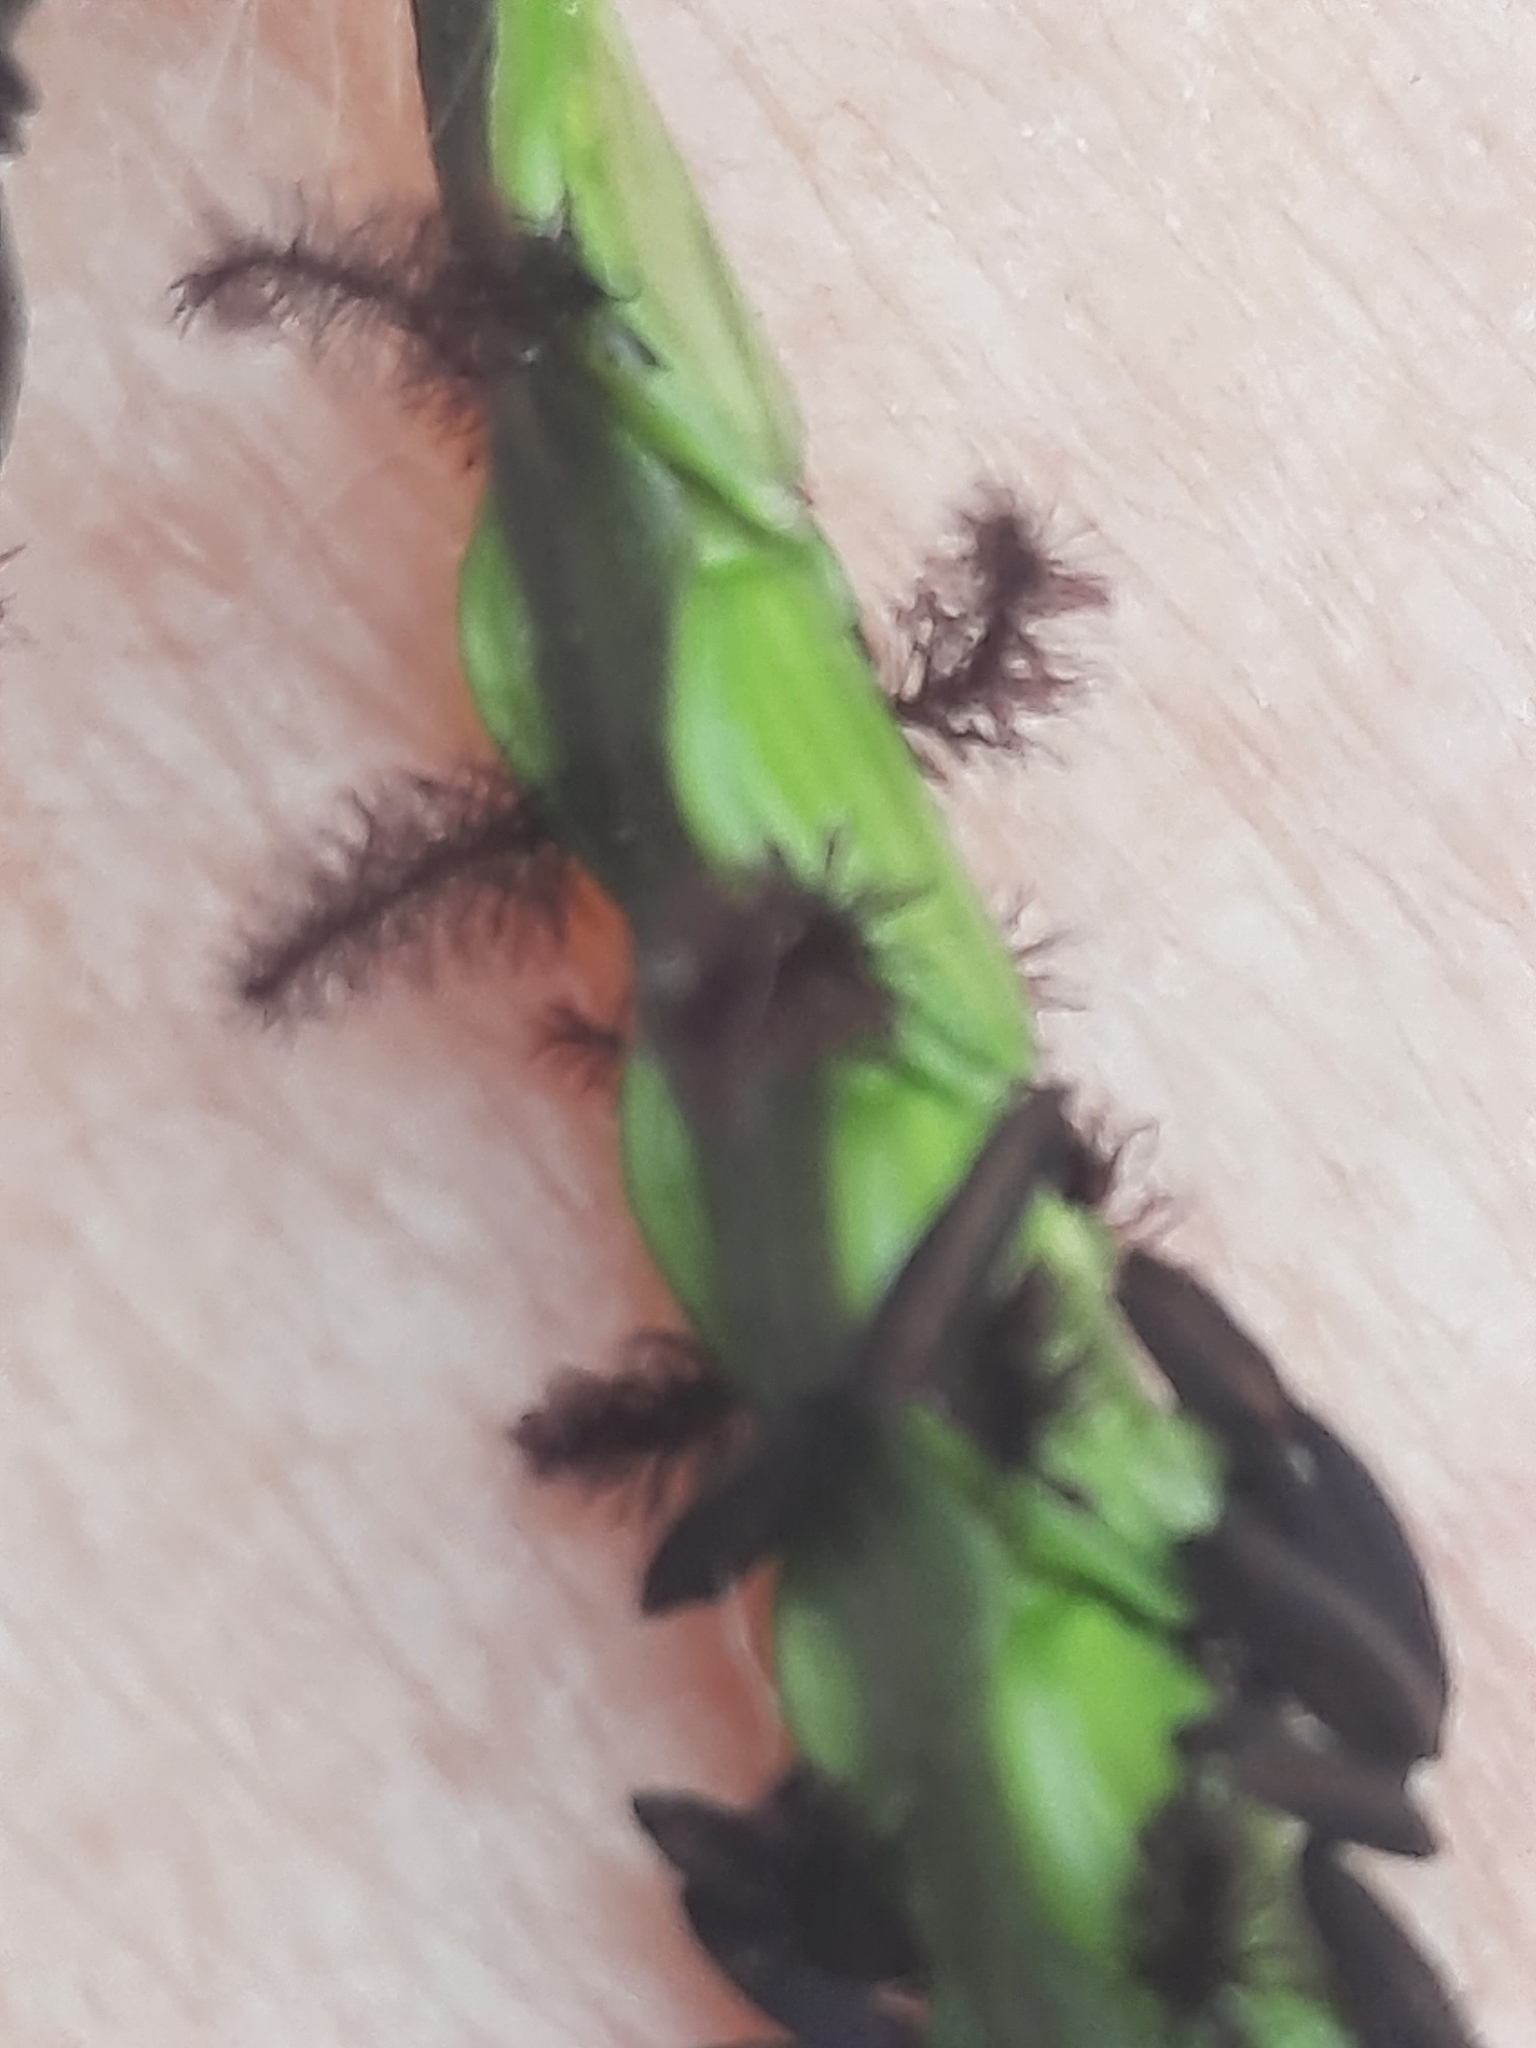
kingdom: Plantae
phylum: Tracheophyta
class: Liliopsida
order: Poales
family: Poaceae
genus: Paspalum
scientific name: Paspalum notatum
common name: Bahiagrass
